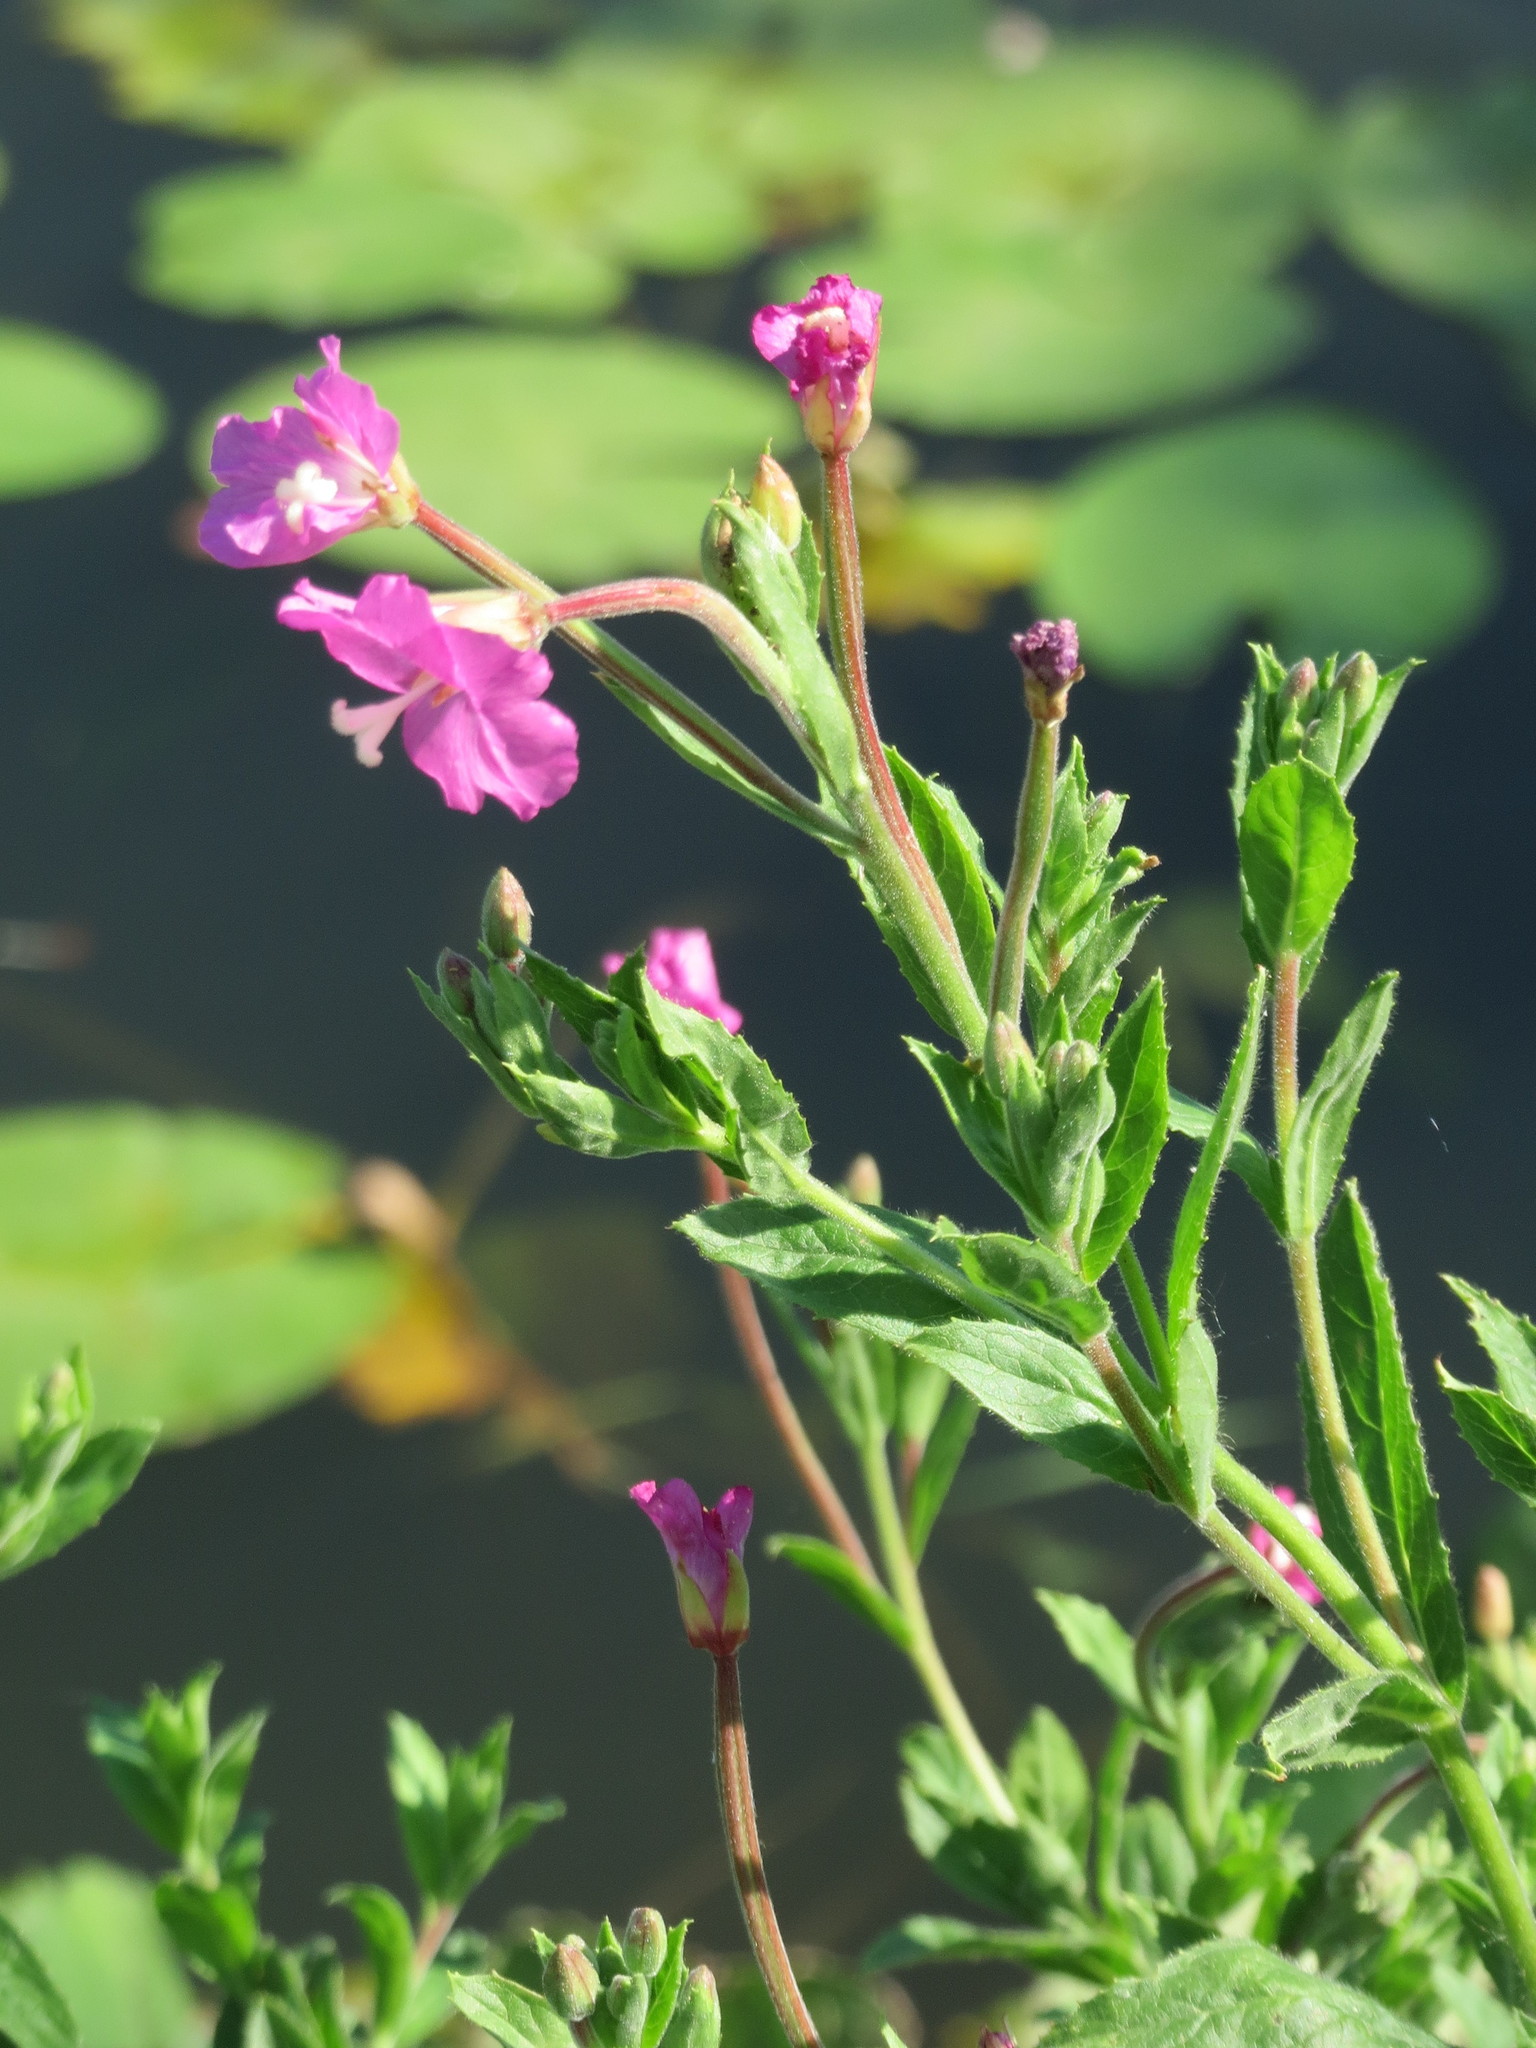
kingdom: Plantae
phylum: Tracheophyta
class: Magnoliopsida
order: Myrtales
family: Onagraceae
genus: Epilobium
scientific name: Epilobium hirsutum
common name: Great willowherb
